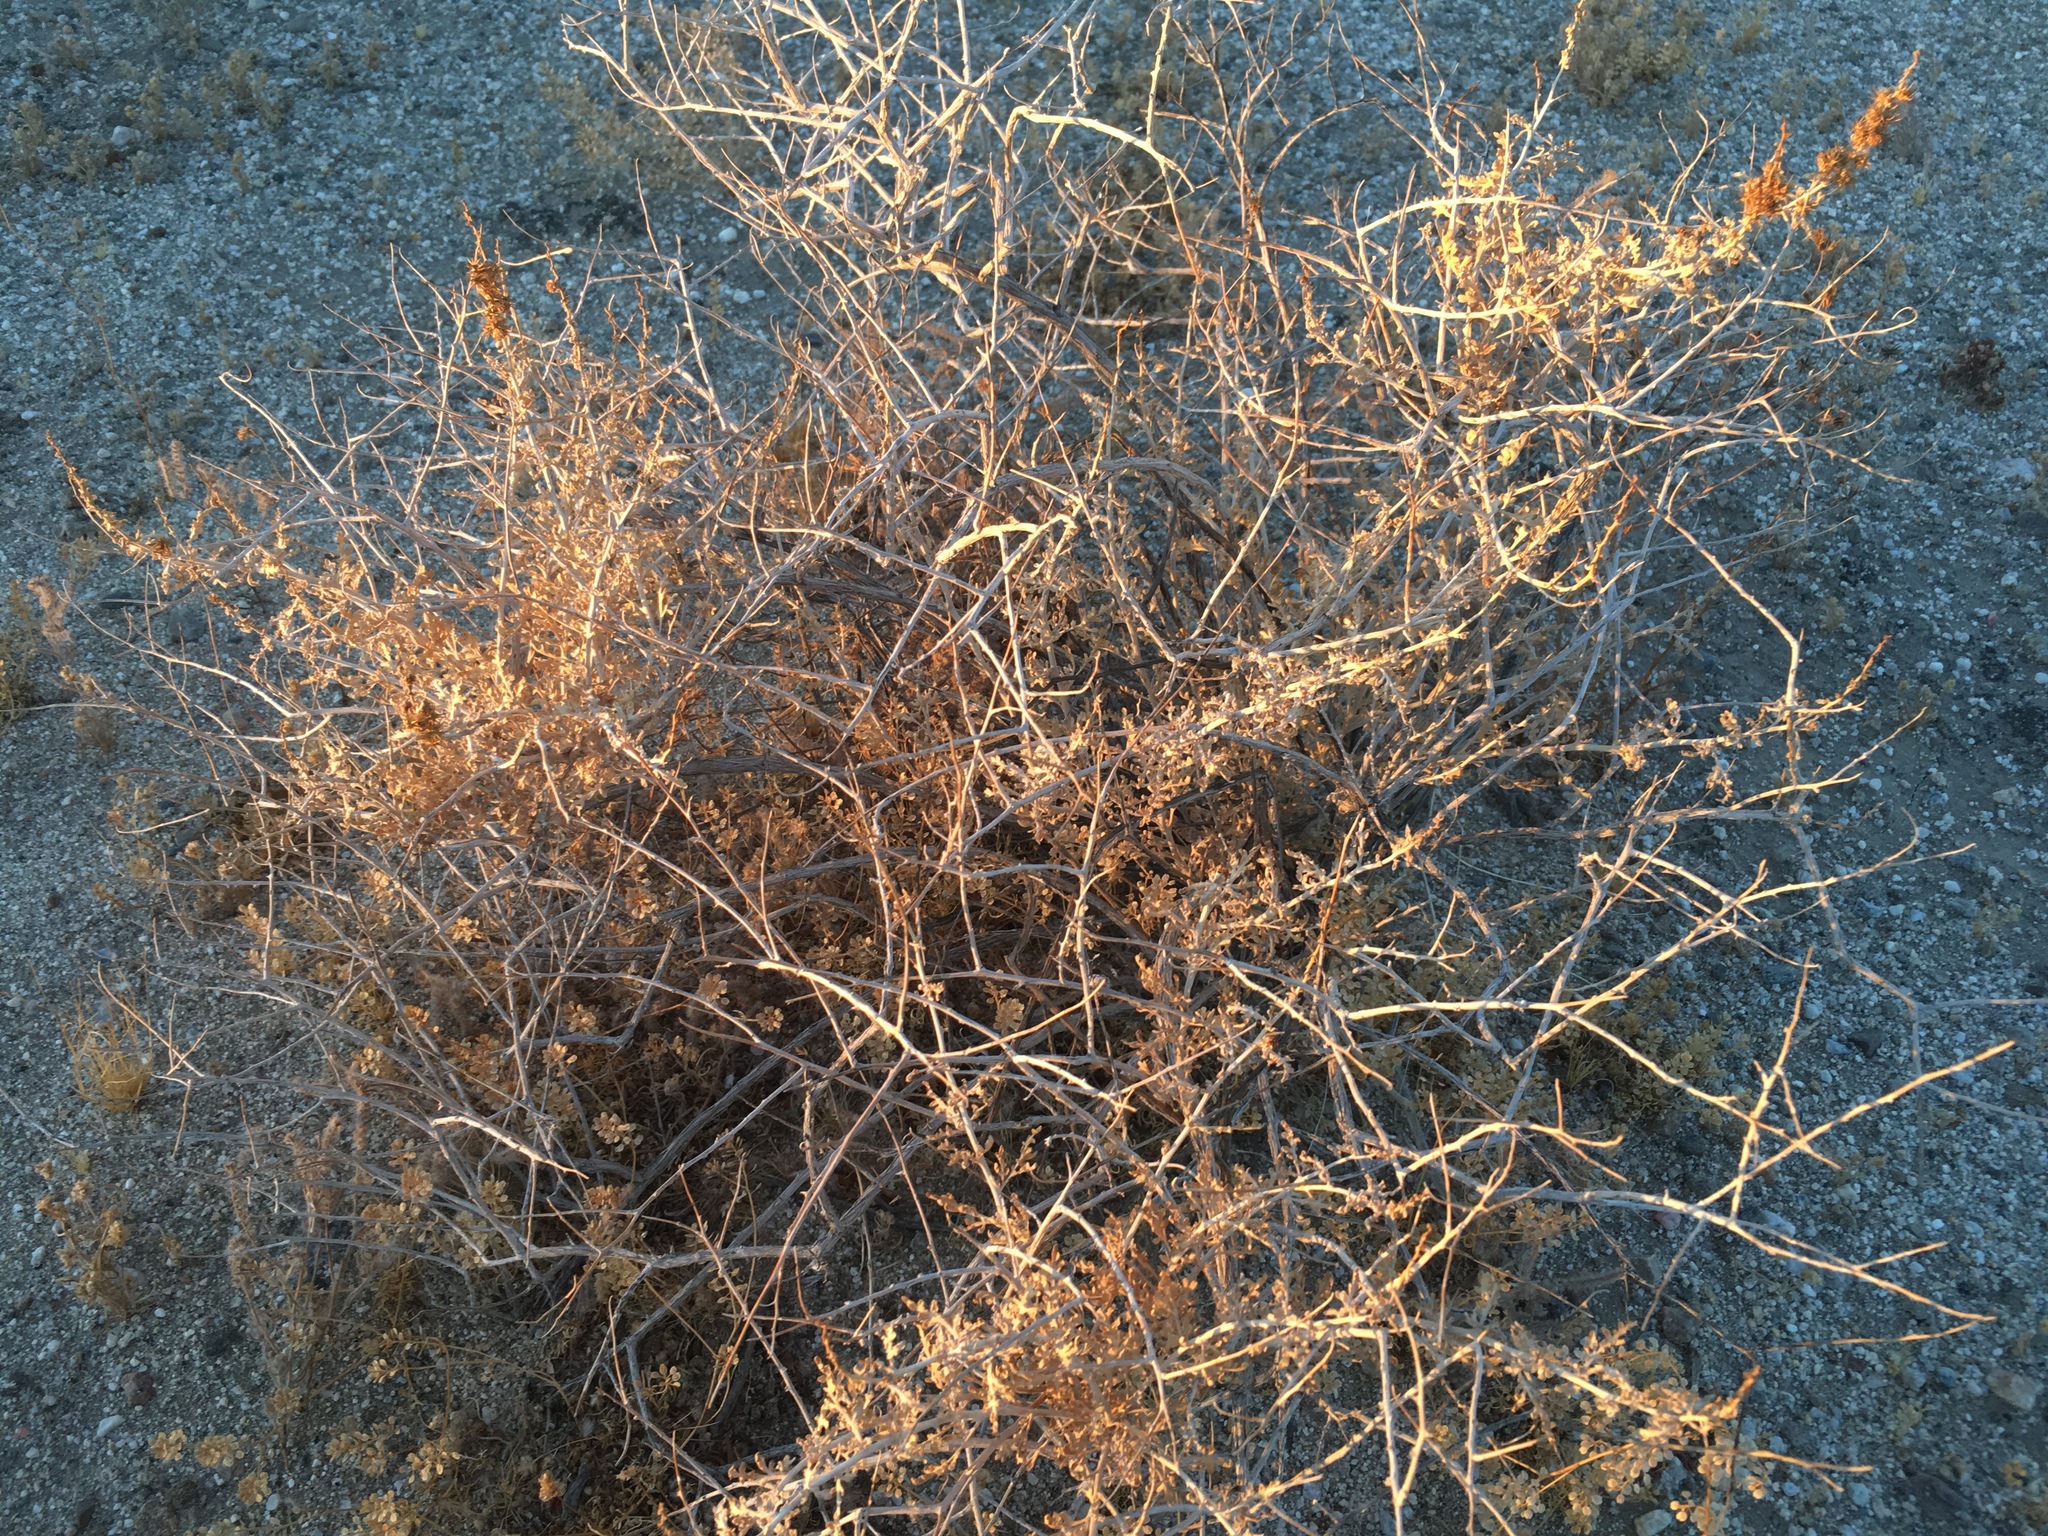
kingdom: Plantae
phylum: Tracheophyta
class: Magnoliopsida
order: Asterales
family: Asteraceae
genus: Ambrosia
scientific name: Ambrosia dumosa
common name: Bur-sage
